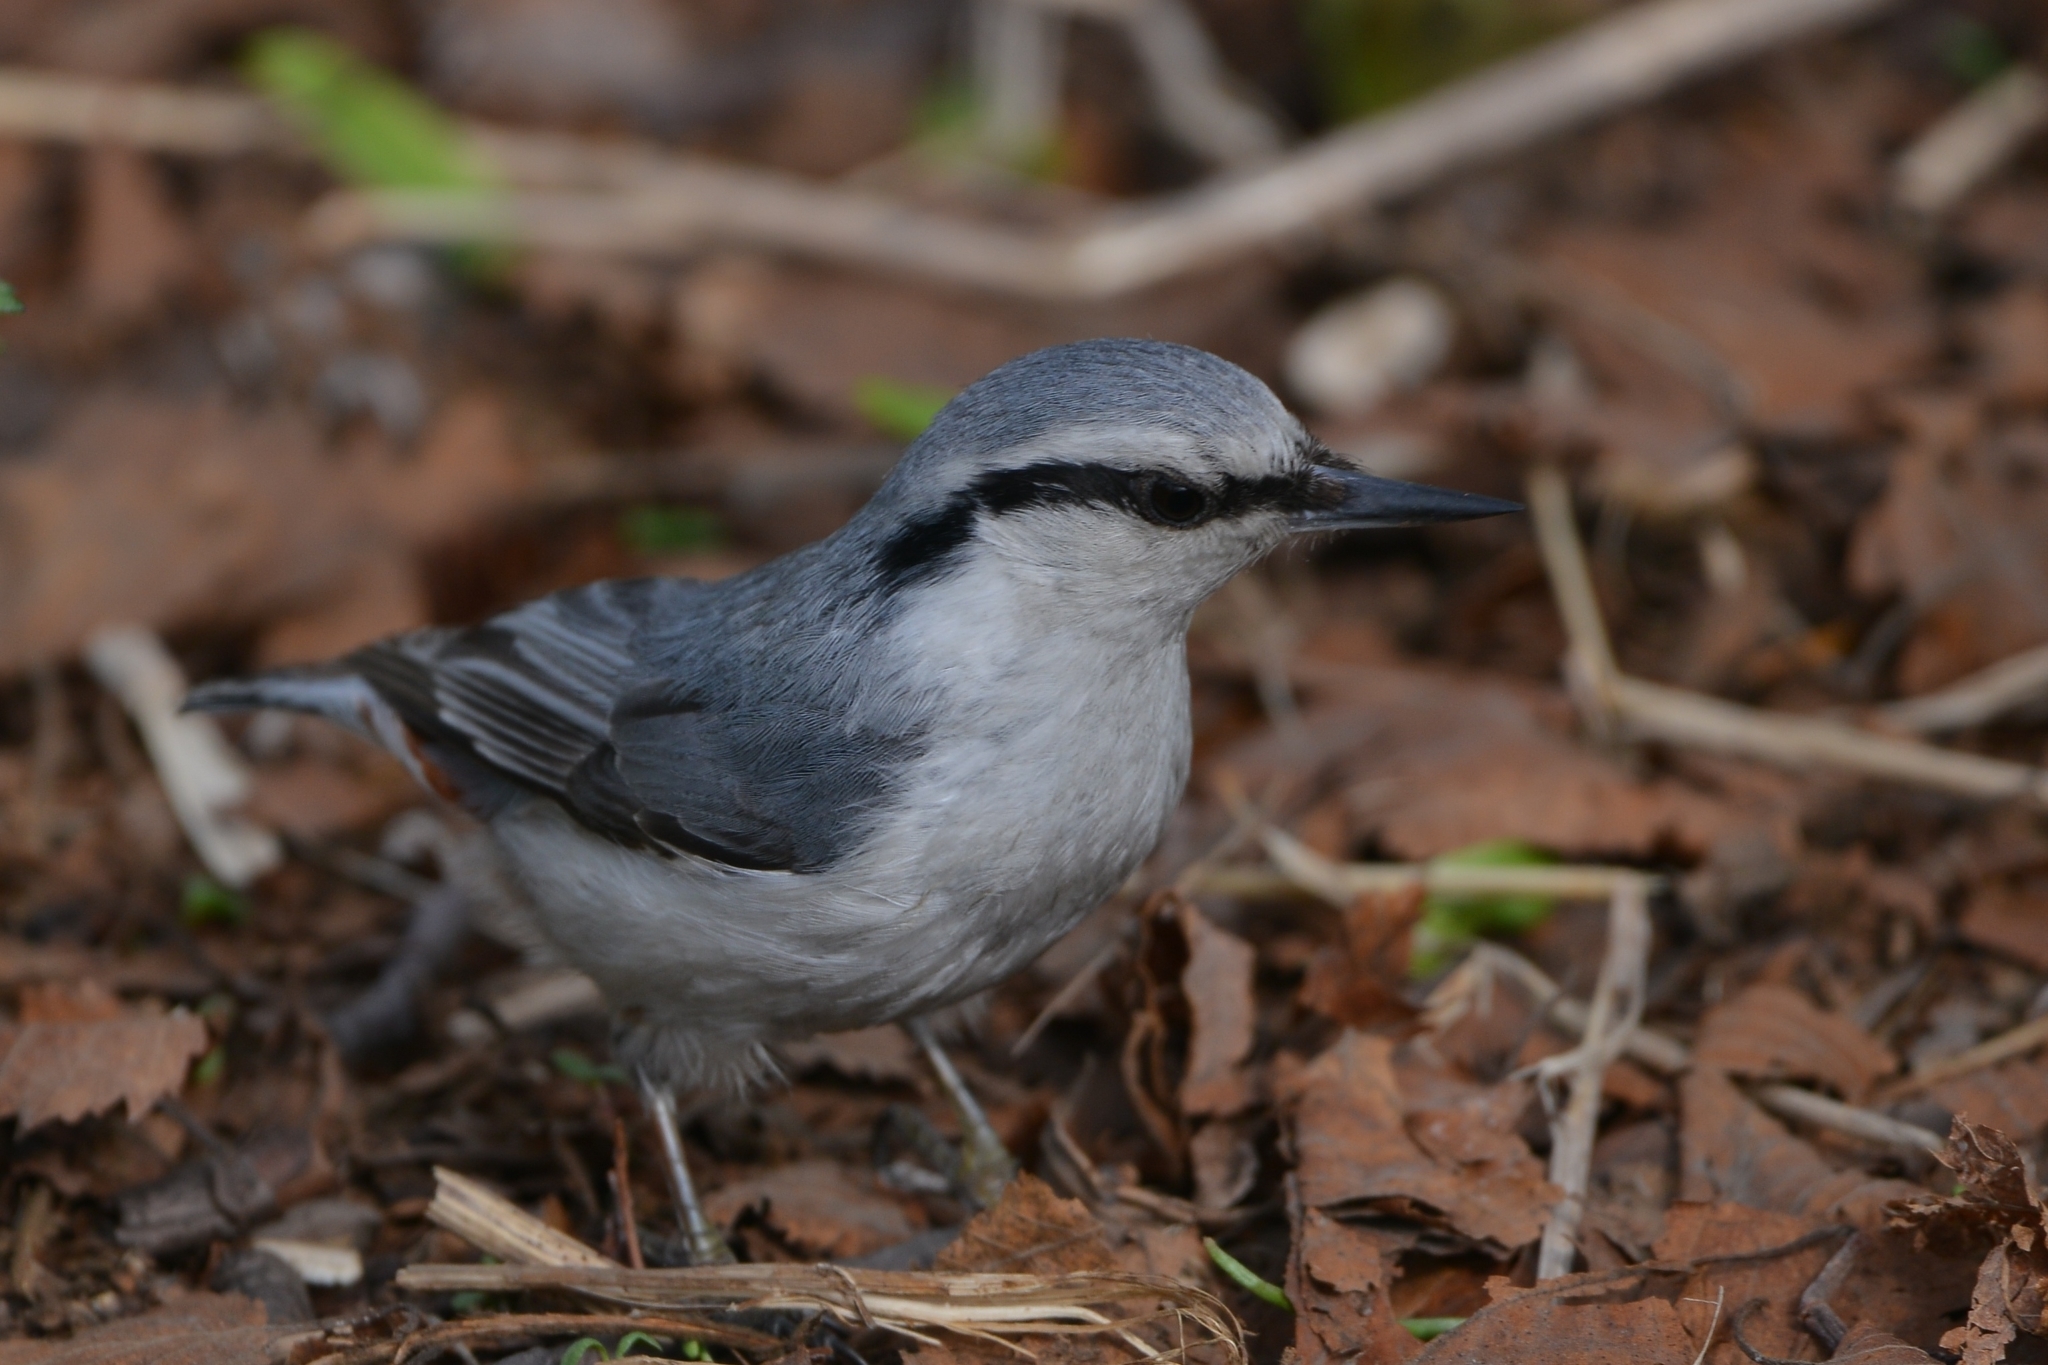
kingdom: Animalia
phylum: Chordata
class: Aves
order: Passeriformes
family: Sittidae
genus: Sitta
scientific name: Sitta europaea
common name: Eurasian nuthatch
